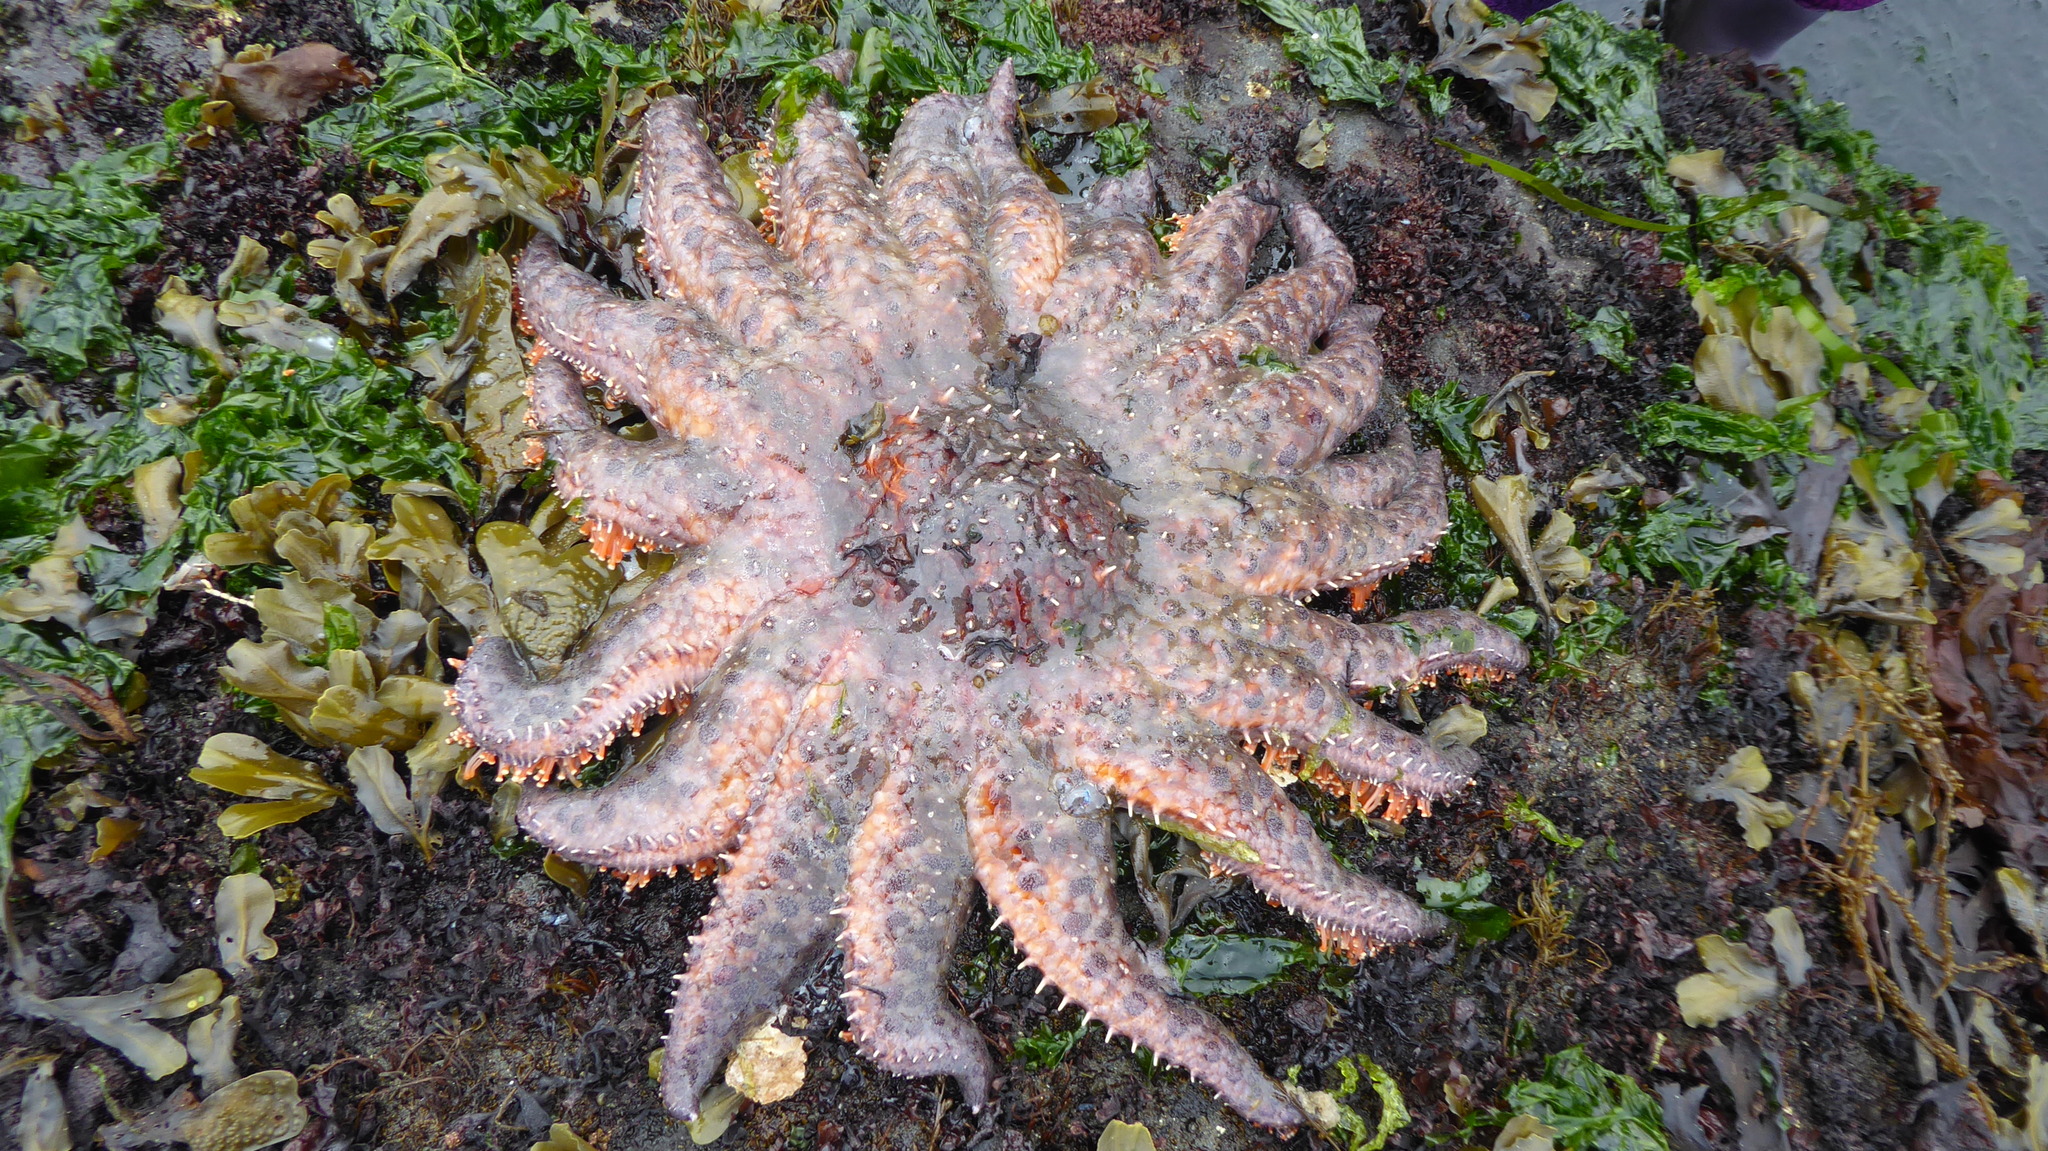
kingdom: Animalia
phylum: Echinodermata
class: Asteroidea
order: Forcipulatida
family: Asteriidae
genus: Pycnopodia
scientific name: Pycnopodia helianthoides
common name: Rag mop
